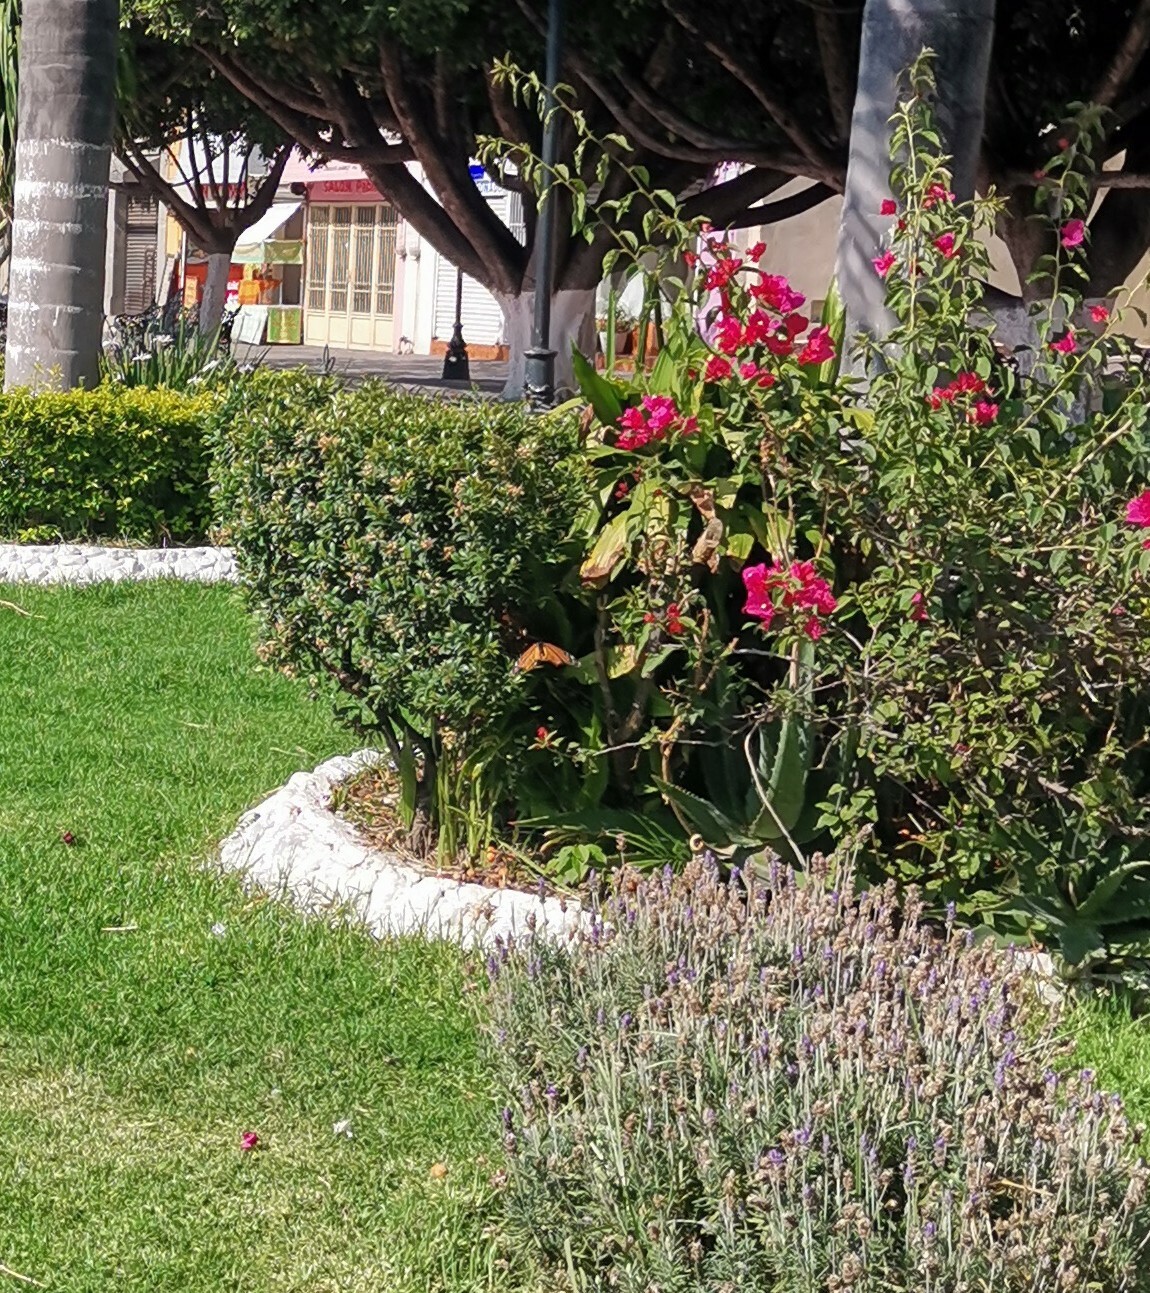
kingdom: Animalia
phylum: Arthropoda
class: Insecta
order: Lepidoptera
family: Nymphalidae
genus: Danaus
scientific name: Danaus plexippus
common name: Monarch
